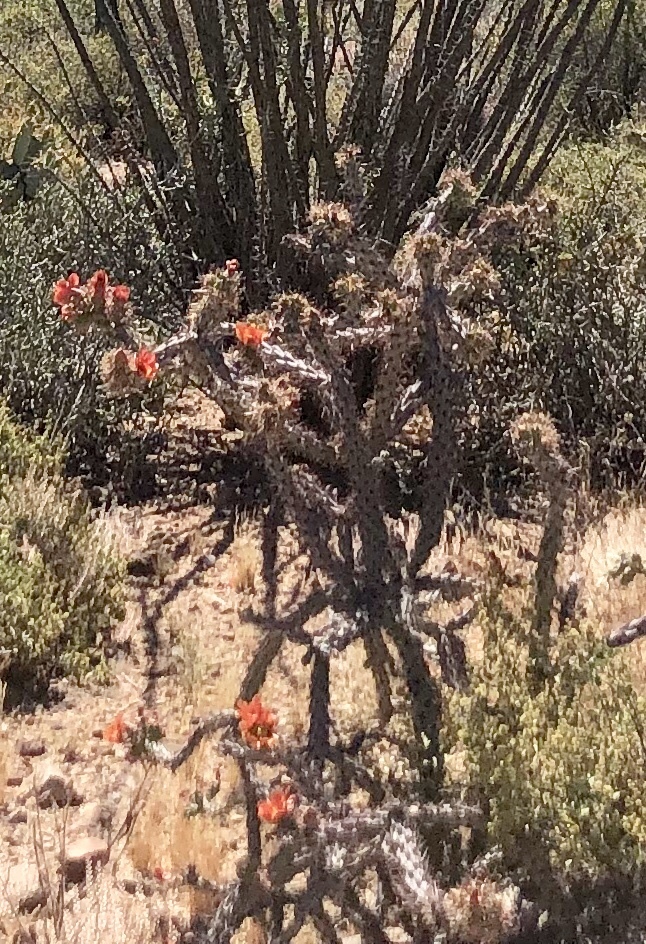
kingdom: Plantae
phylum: Tracheophyta
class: Magnoliopsida
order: Caryophyllales
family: Cactaceae
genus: Cylindropuntia
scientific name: Cylindropuntia thurberi
